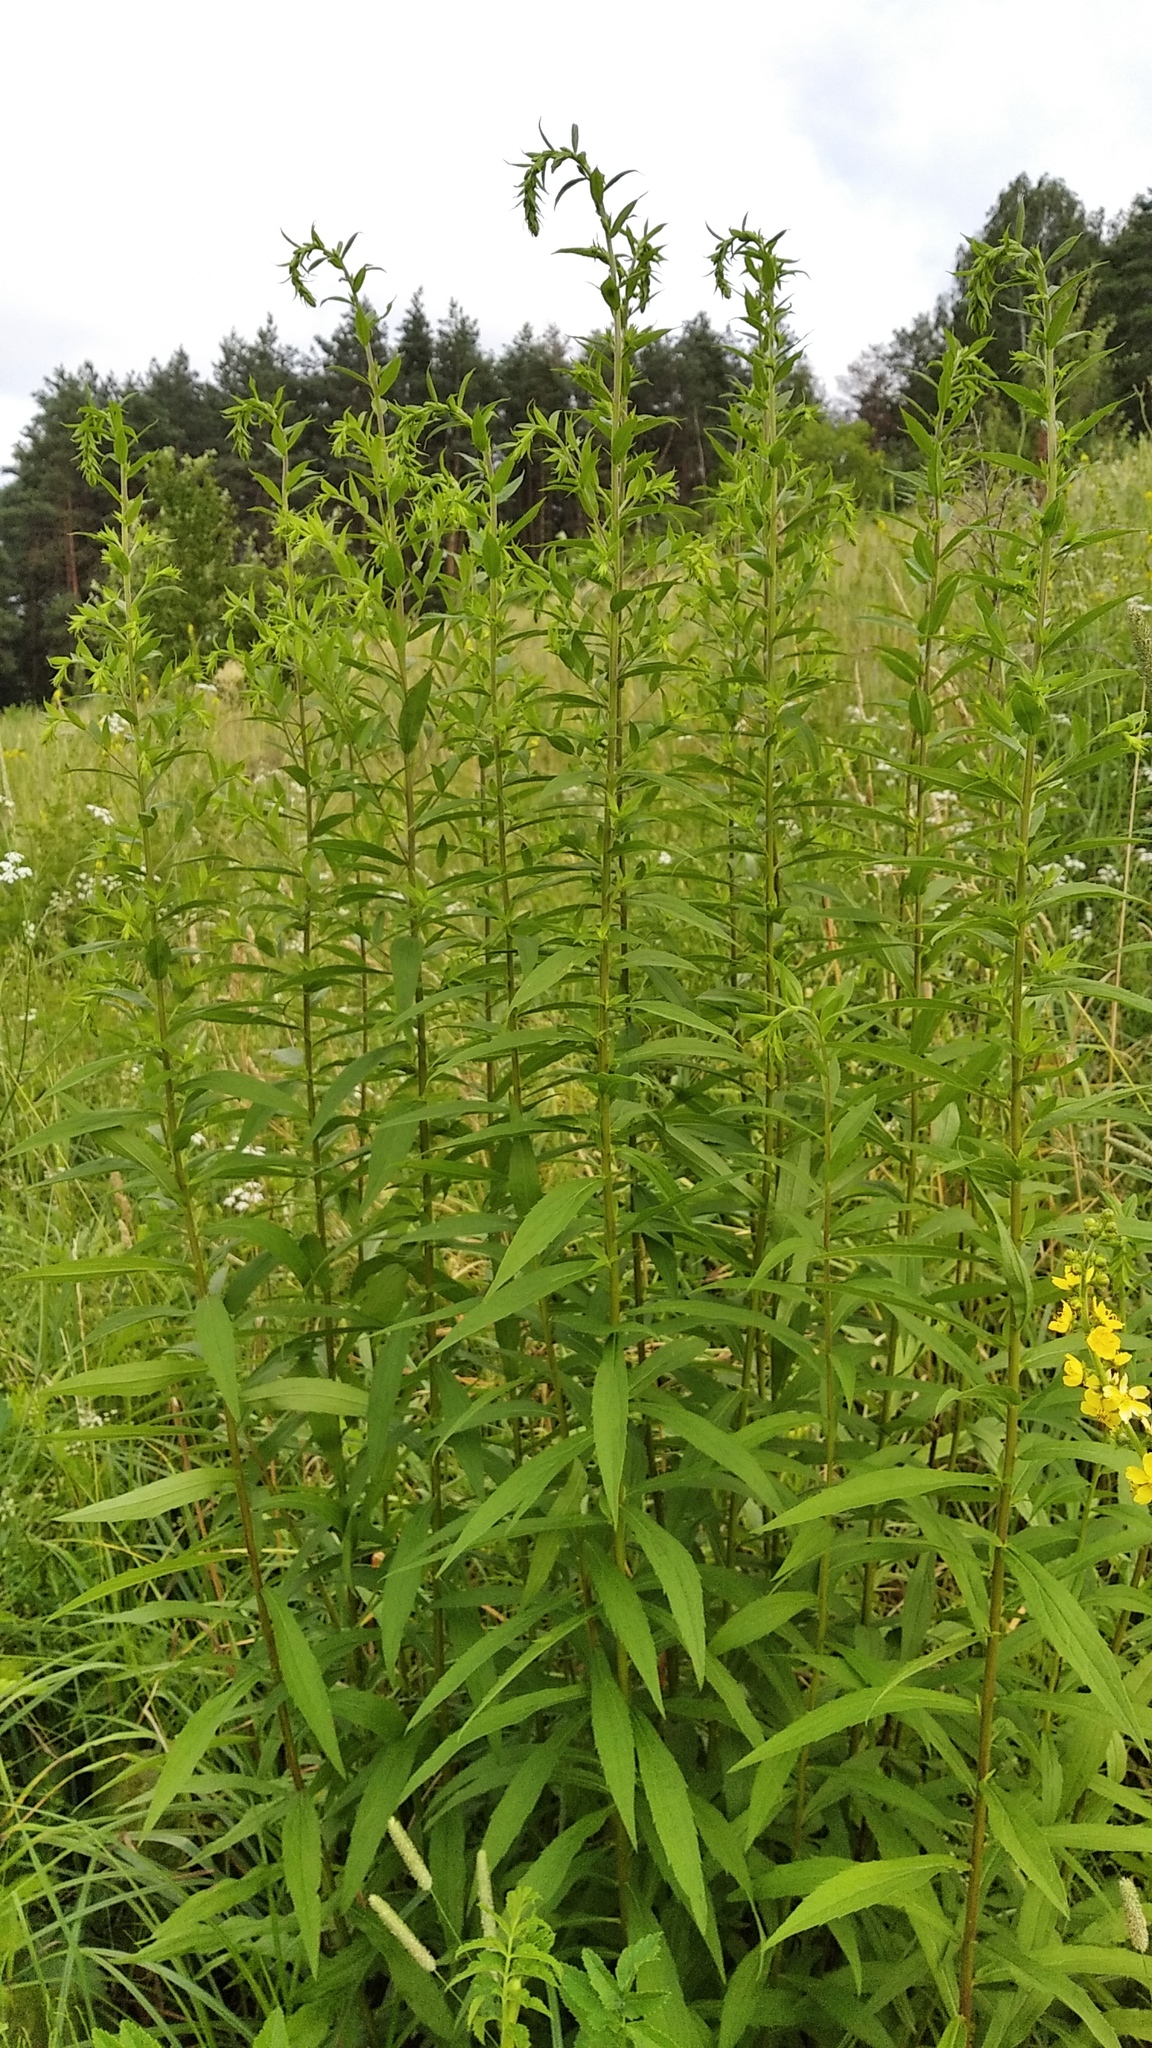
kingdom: Plantae
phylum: Tracheophyta
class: Magnoliopsida
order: Asterales
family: Asteraceae
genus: Solidago
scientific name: Solidago canadensis
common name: Canada goldenrod
